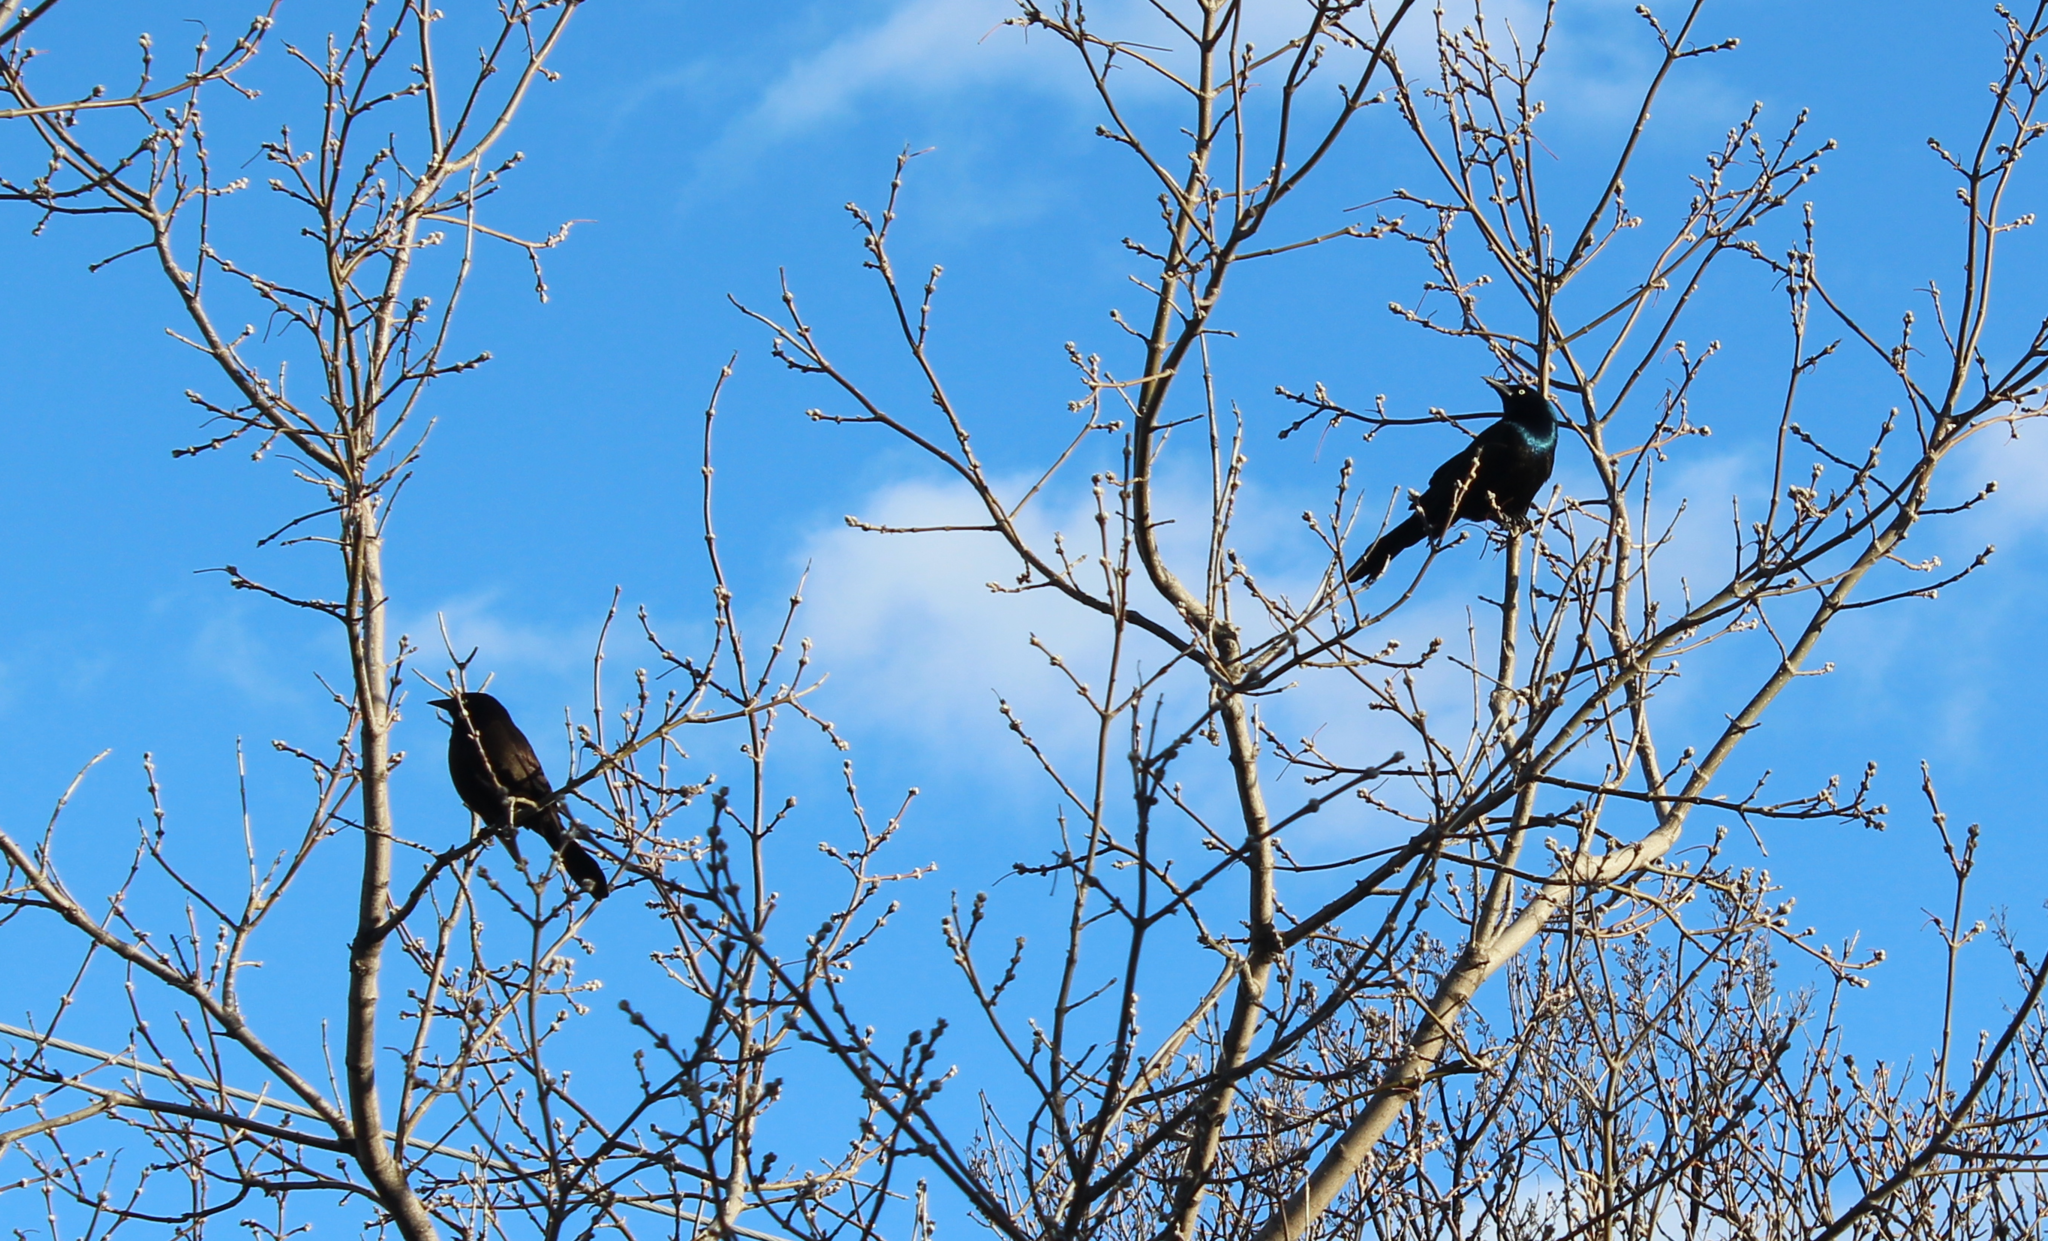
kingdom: Animalia
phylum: Chordata
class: Aves
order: Passeriformes
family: Icteridae
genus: Quiscalus
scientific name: Quiscalus quiscula
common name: Common grackle
